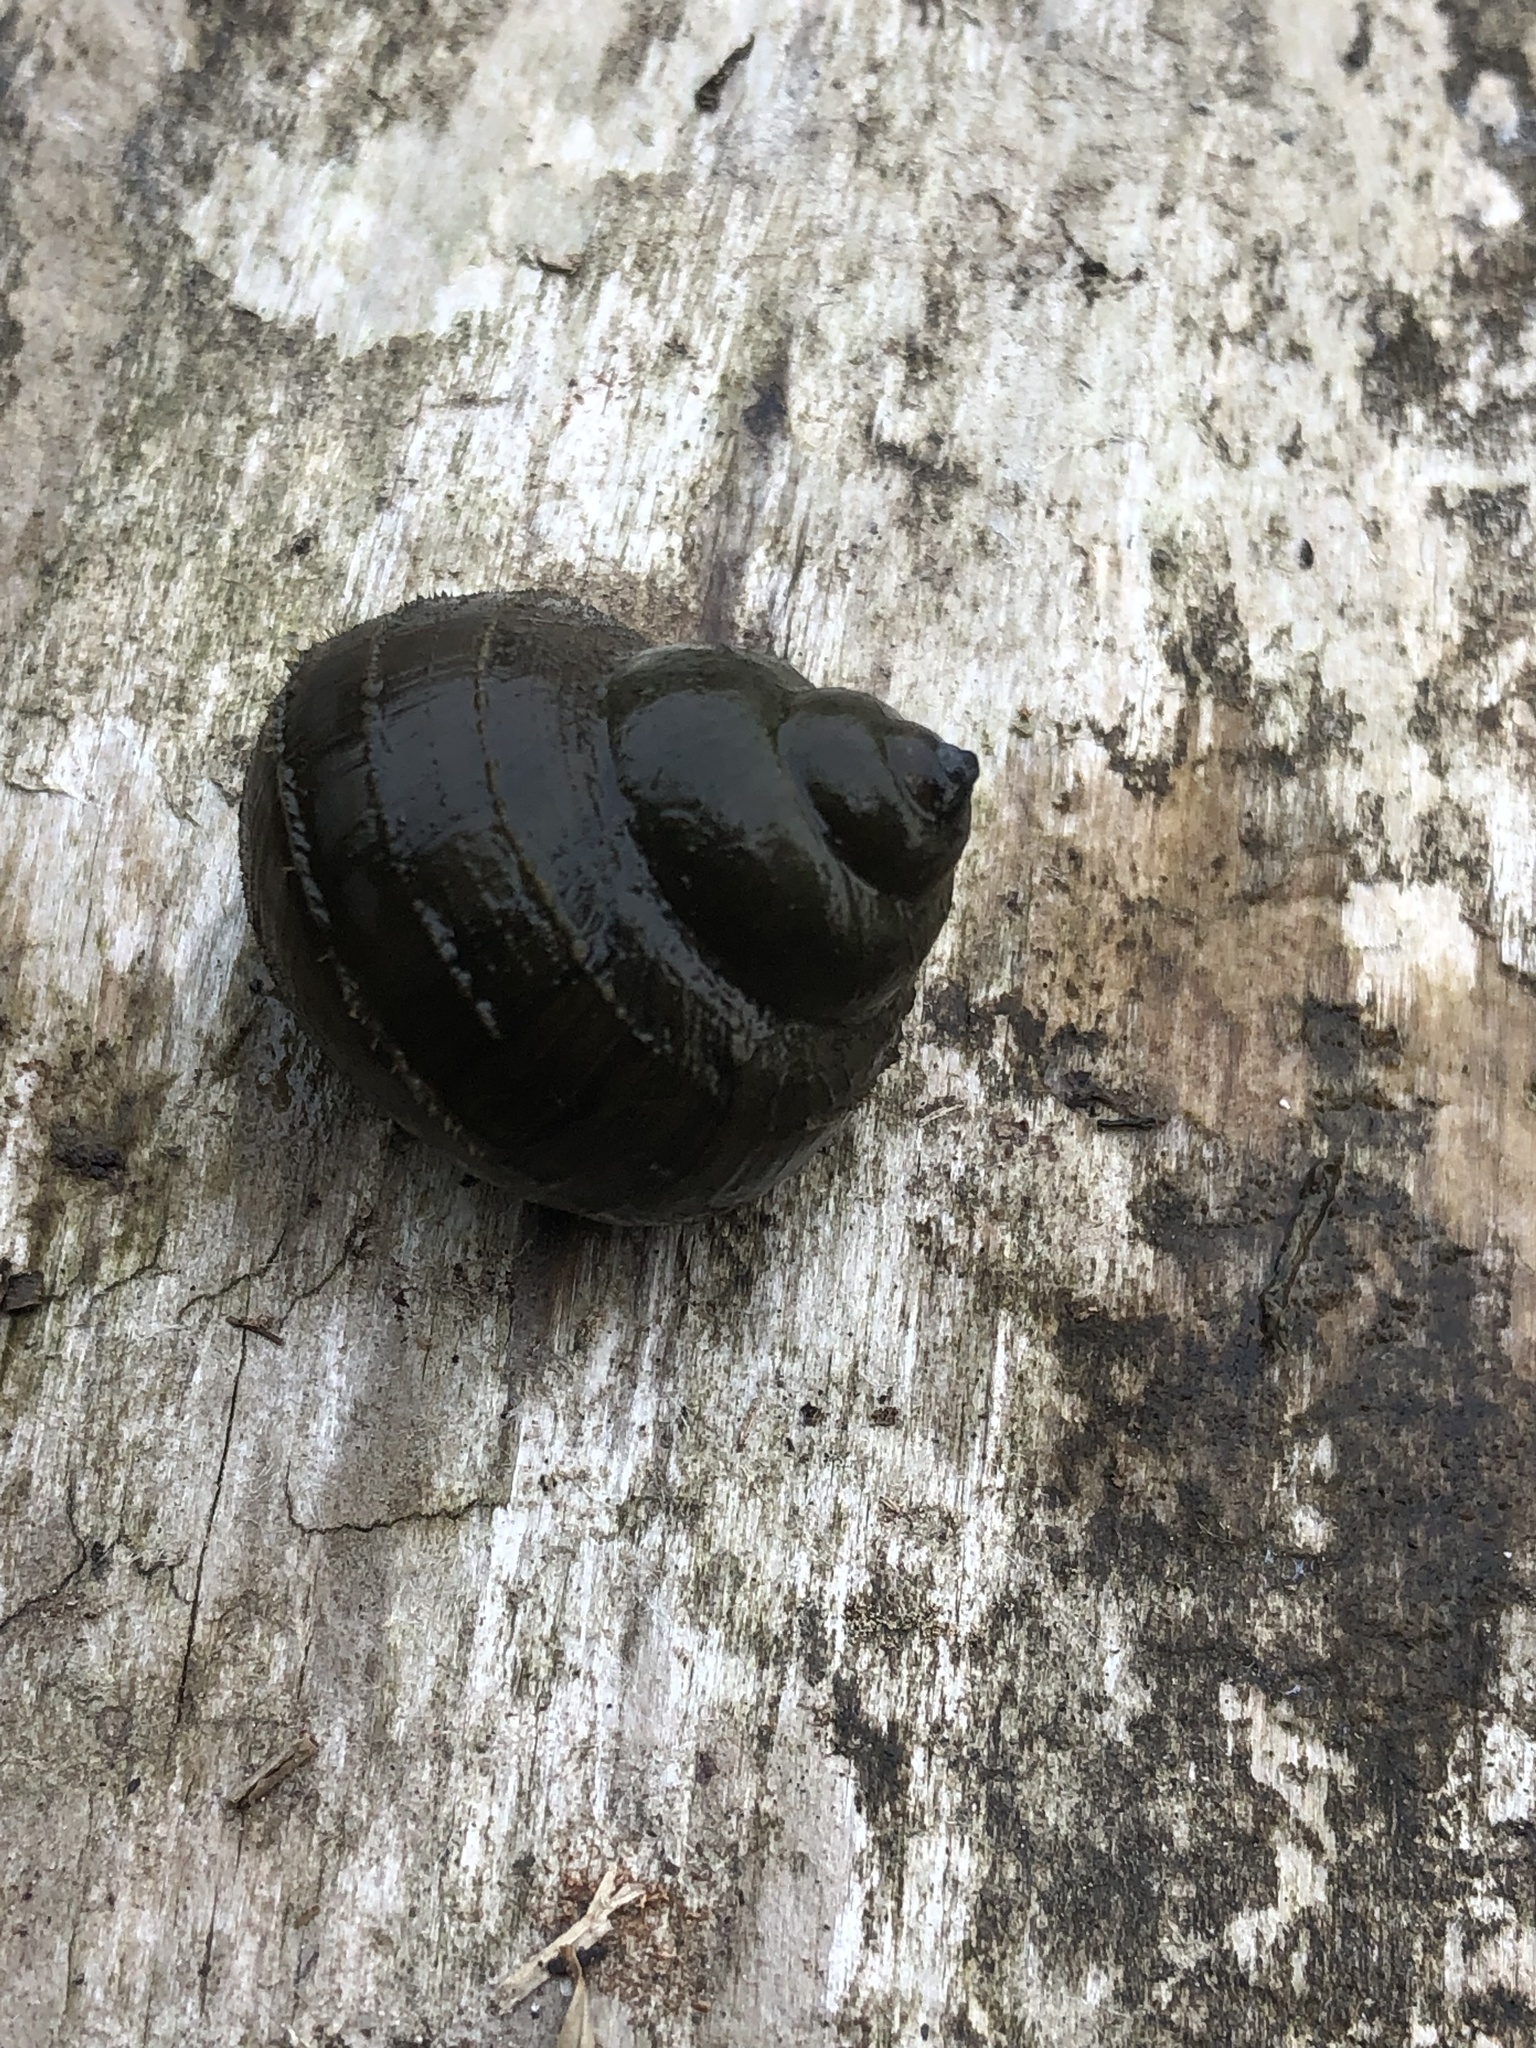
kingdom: Animalia
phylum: Mollusca
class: Gastropoda
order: Architaenioglossa
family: Viviparidae
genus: Cipangopaludina
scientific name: Cipangopaludina chinensis
